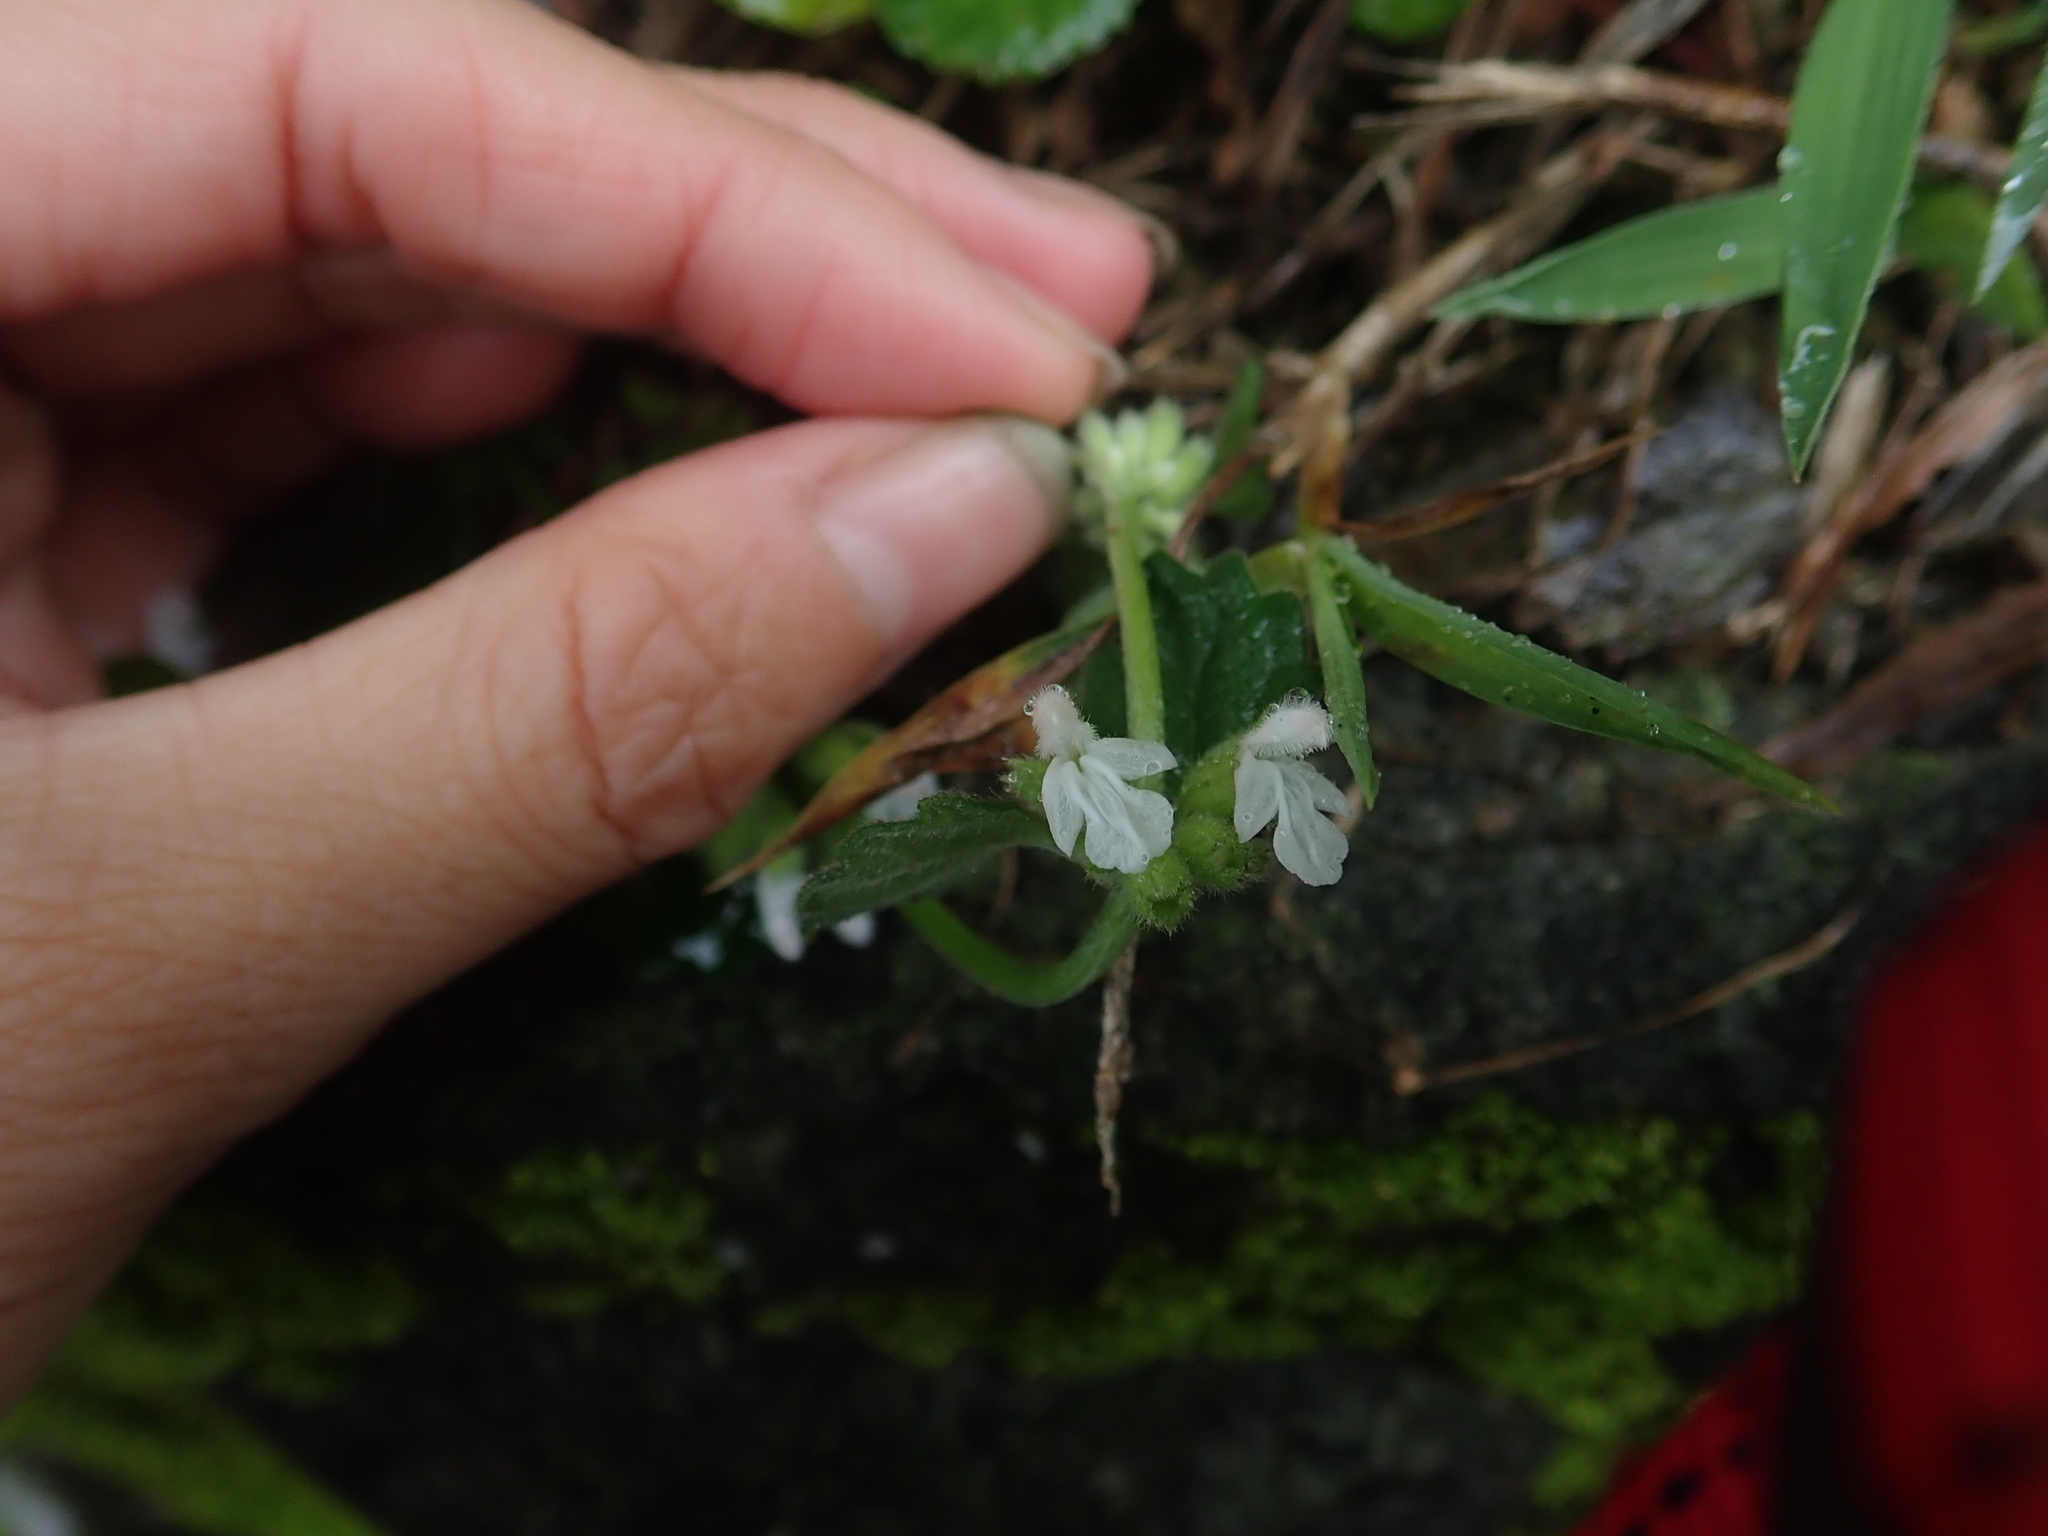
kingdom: Plantae
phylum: Tracheophyta
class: Magnoliopsida
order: Lamiales
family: Lamiaceae
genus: Leucas
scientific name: Leucas chinensis
